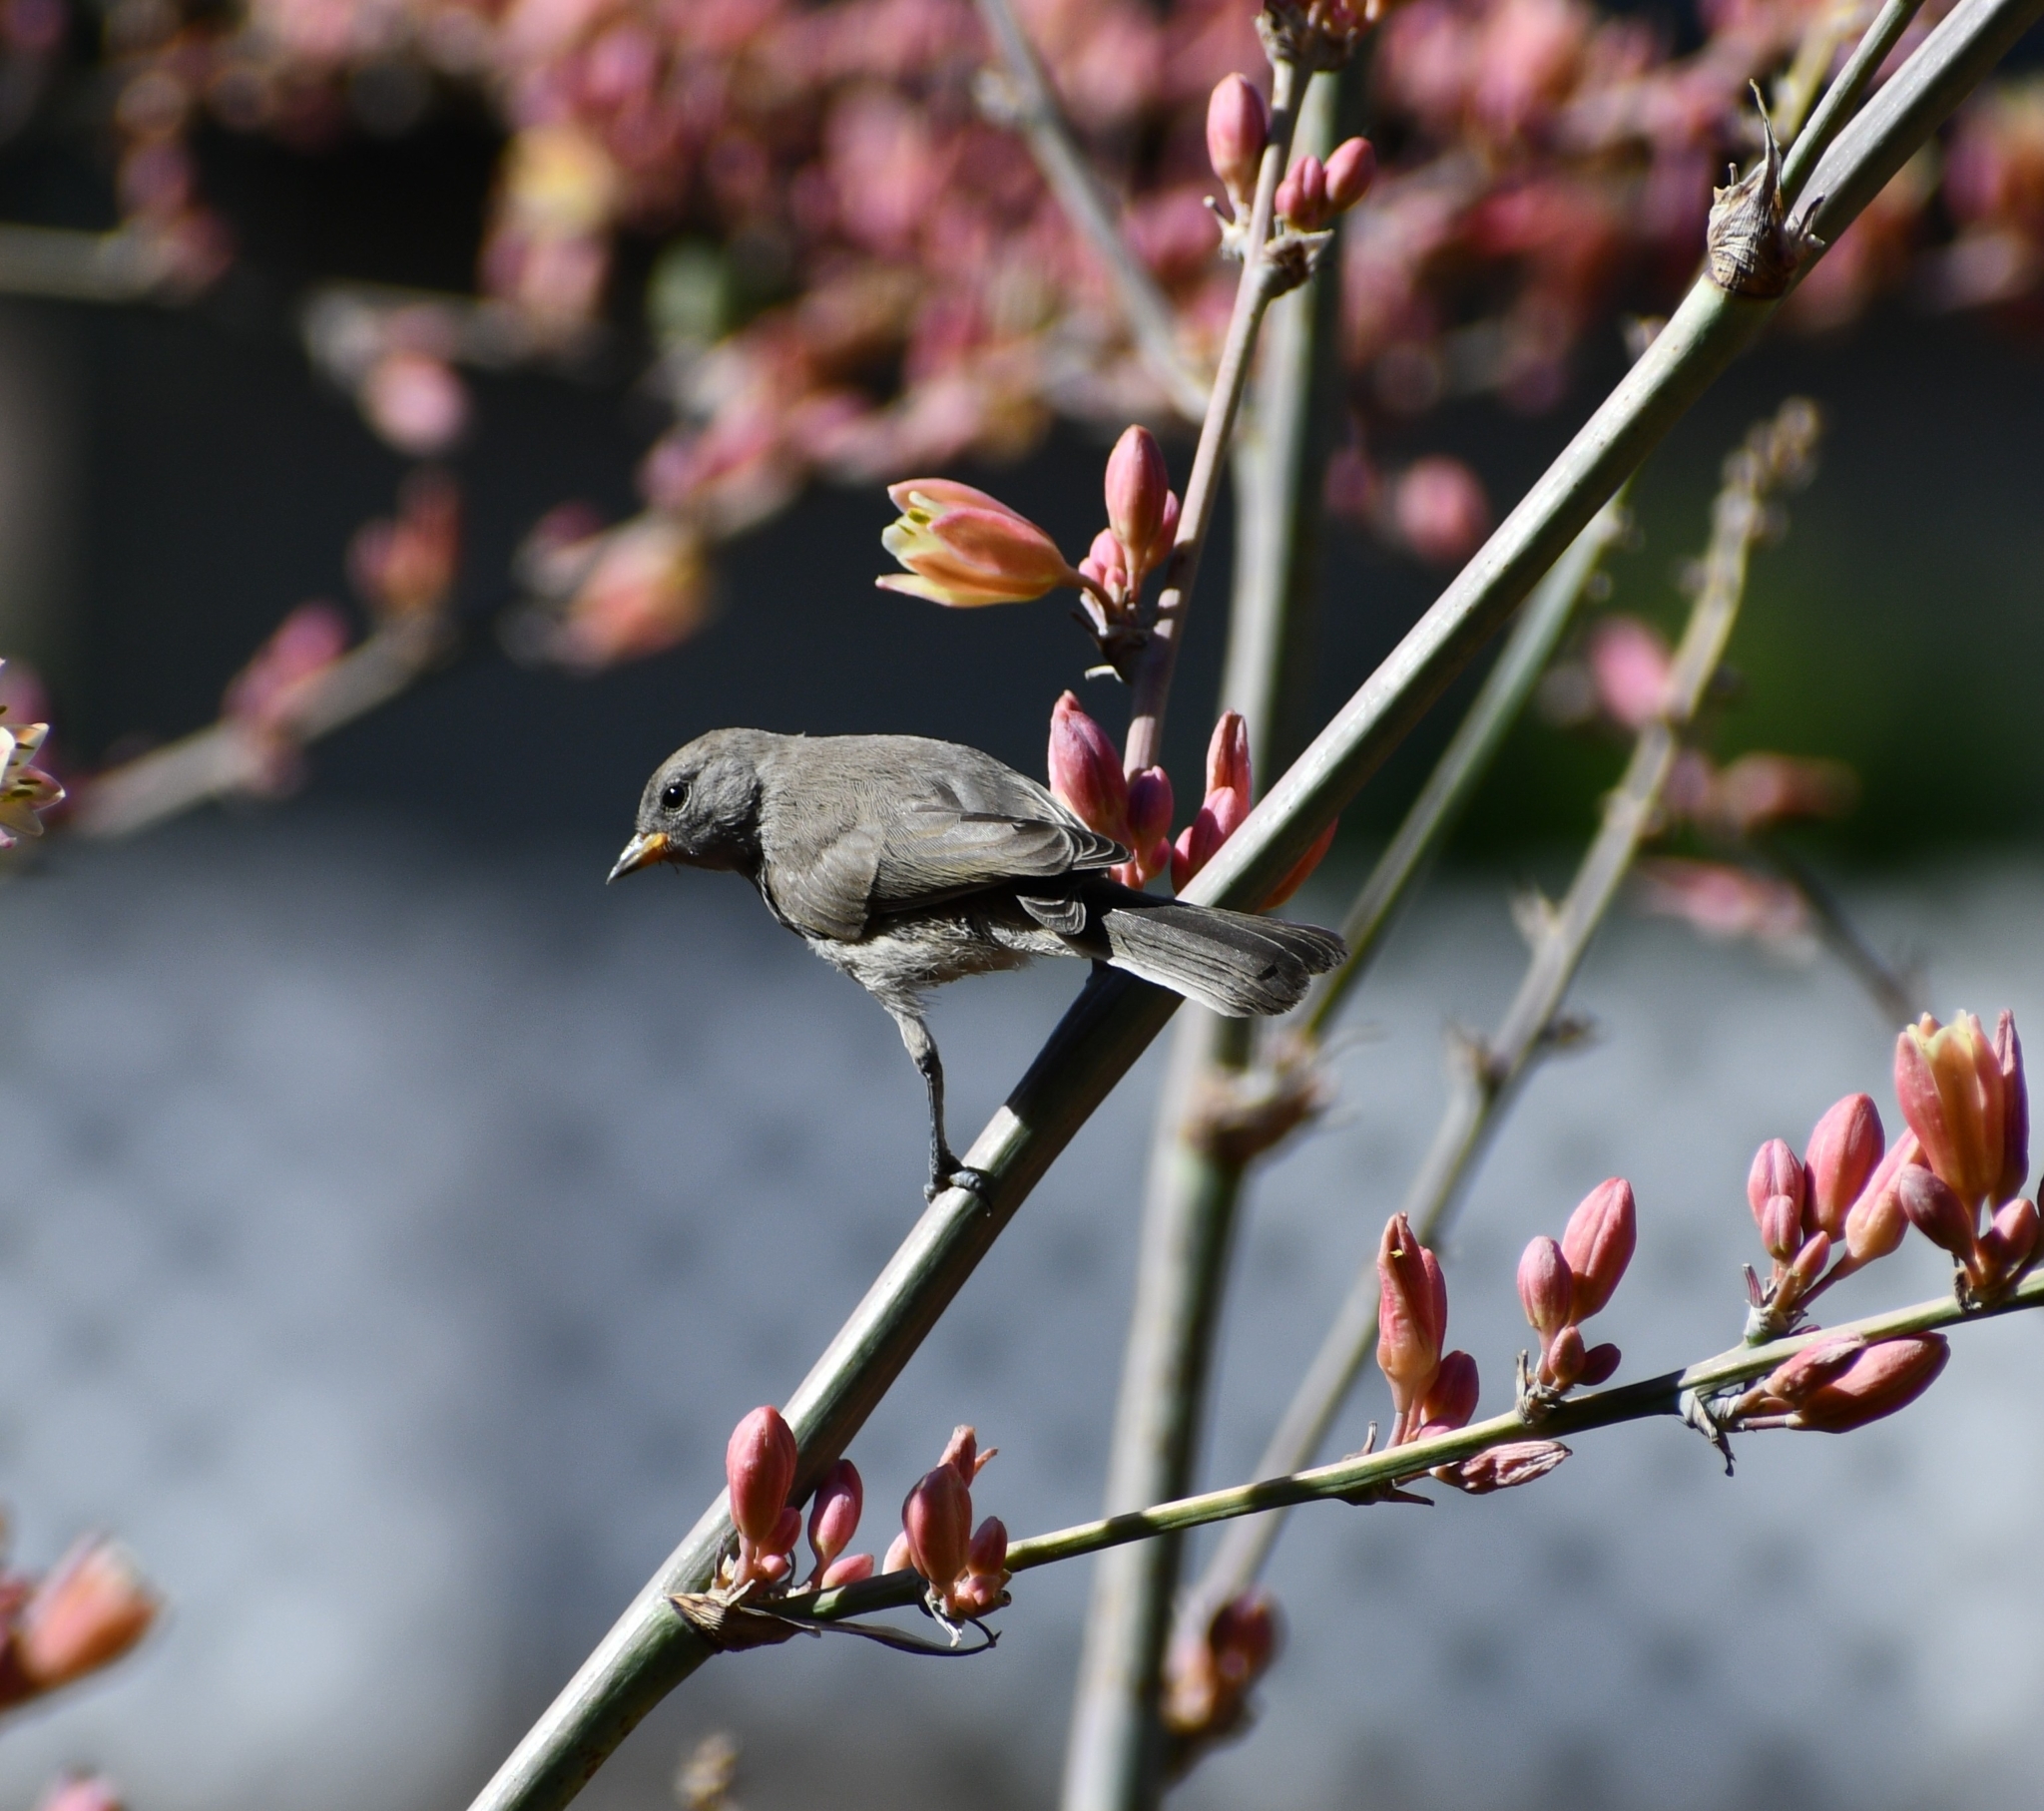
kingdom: Animalia
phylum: Chordata
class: Aves
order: Passeriformes
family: Remizidae
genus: Auriparus
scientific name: Auriparus flaviceps
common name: Verdin
